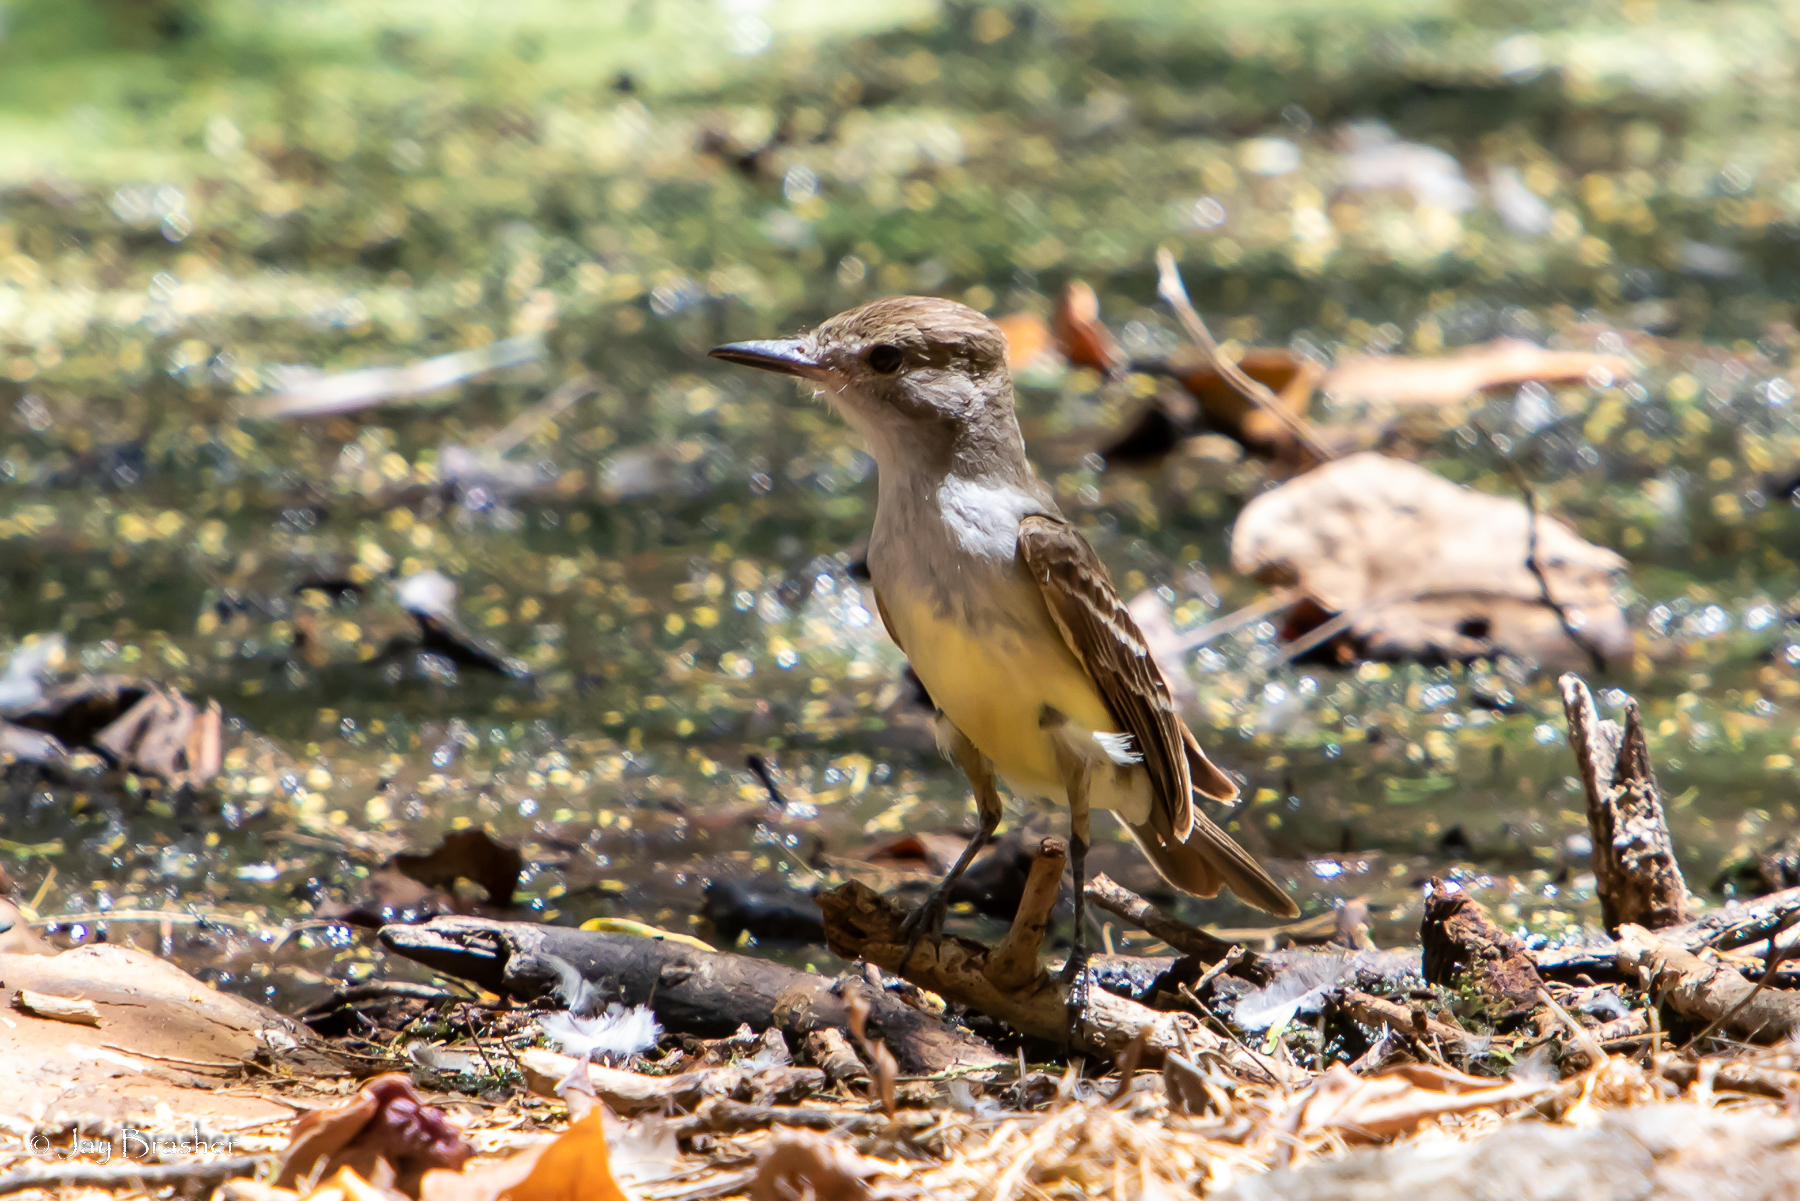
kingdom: Animalia
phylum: Chordata
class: Aves
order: Passeriformes
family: Tyrannidae
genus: Myiarchus
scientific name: Myiarchus tyrannulus
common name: Brown-crested flycatcher
